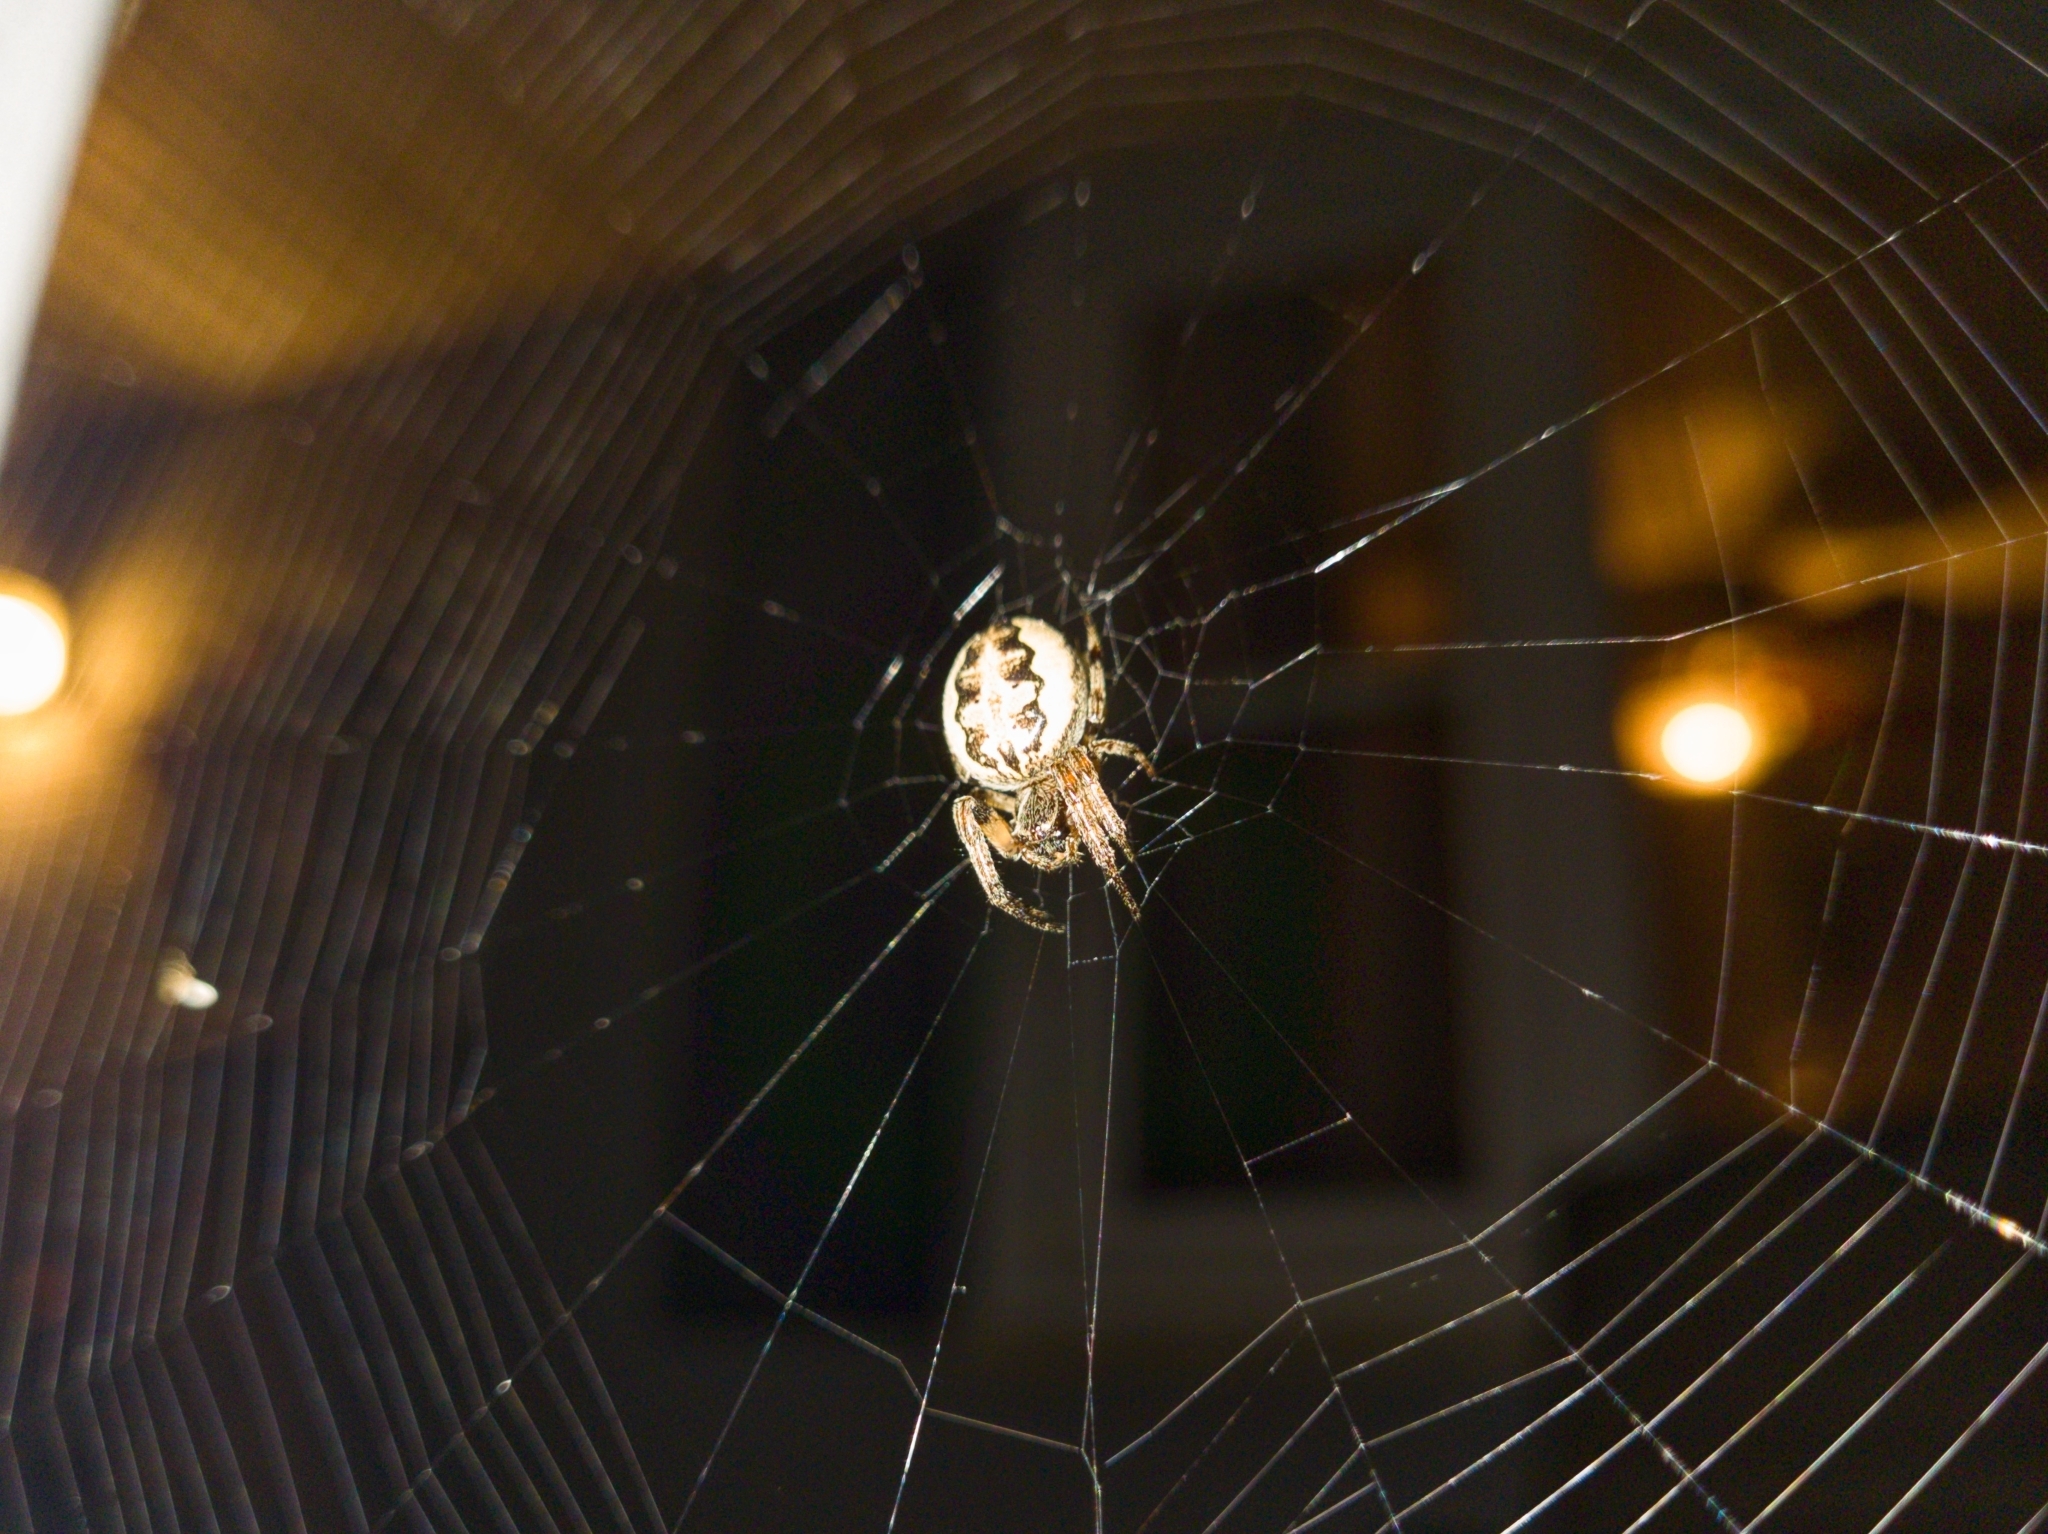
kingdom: Animalia
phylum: Arthropoda
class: Arachnida
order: Araneae
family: Araneidae
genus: Larinioides
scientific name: Larinioides cornutus
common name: Furrow orbweaver
